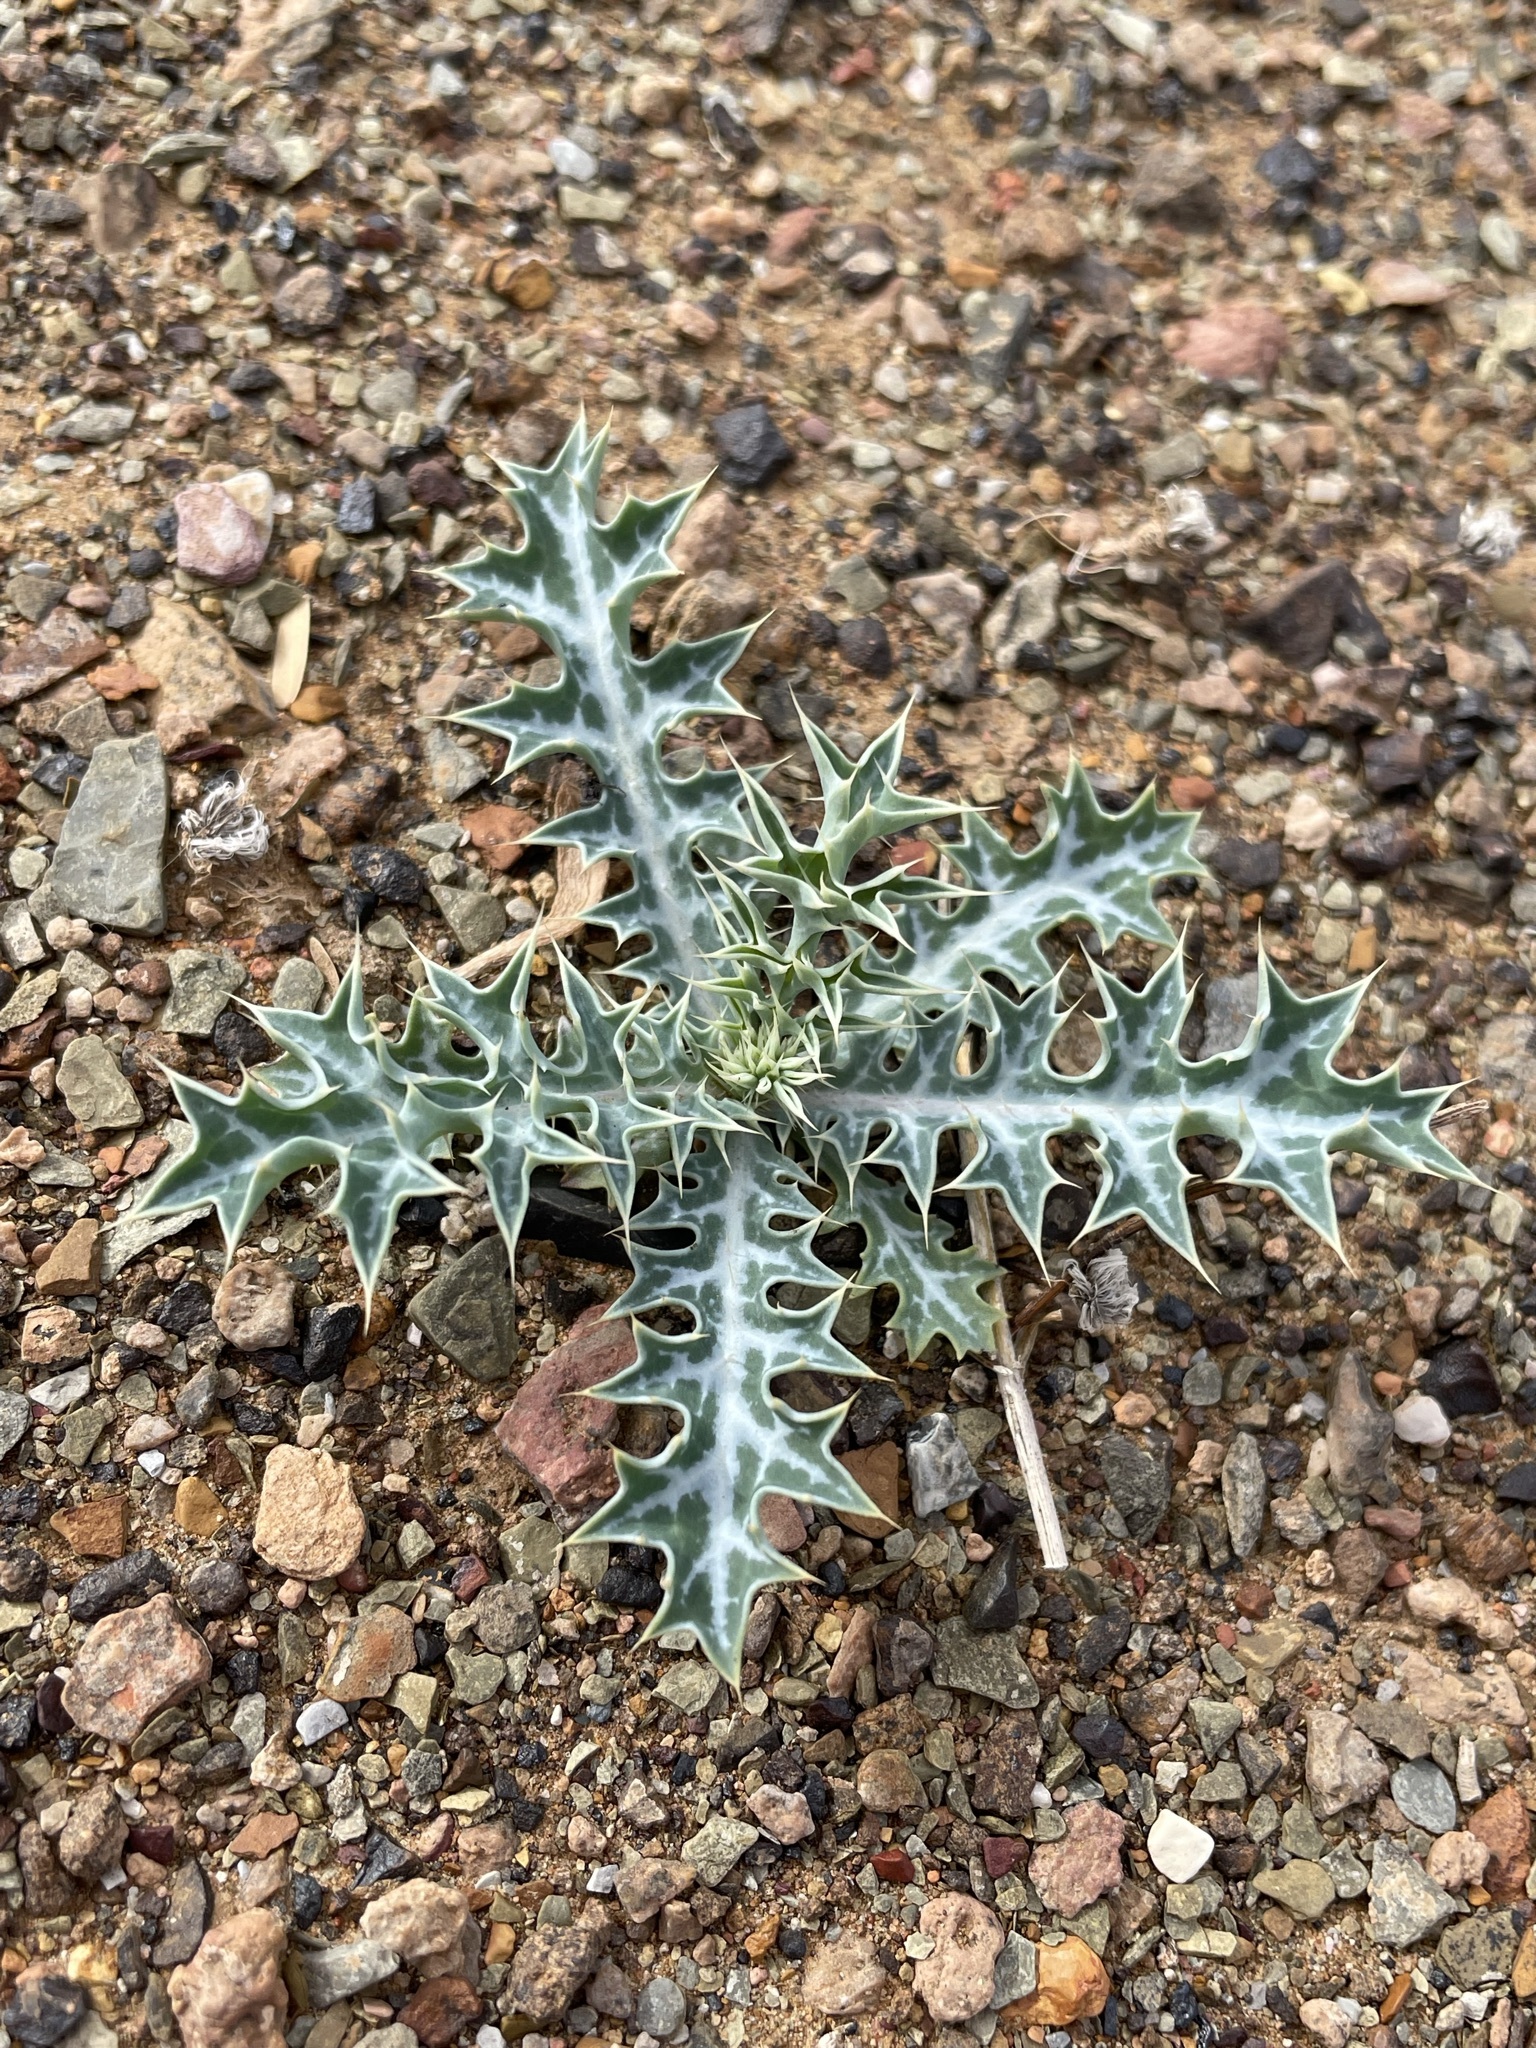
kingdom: Plantae
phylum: Tracheophyta
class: Magnoliopsida
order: Ranunculales
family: Papaveraceae
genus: Argemone
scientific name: Argemone ochroleuca
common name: White-flower mexican-poppy
